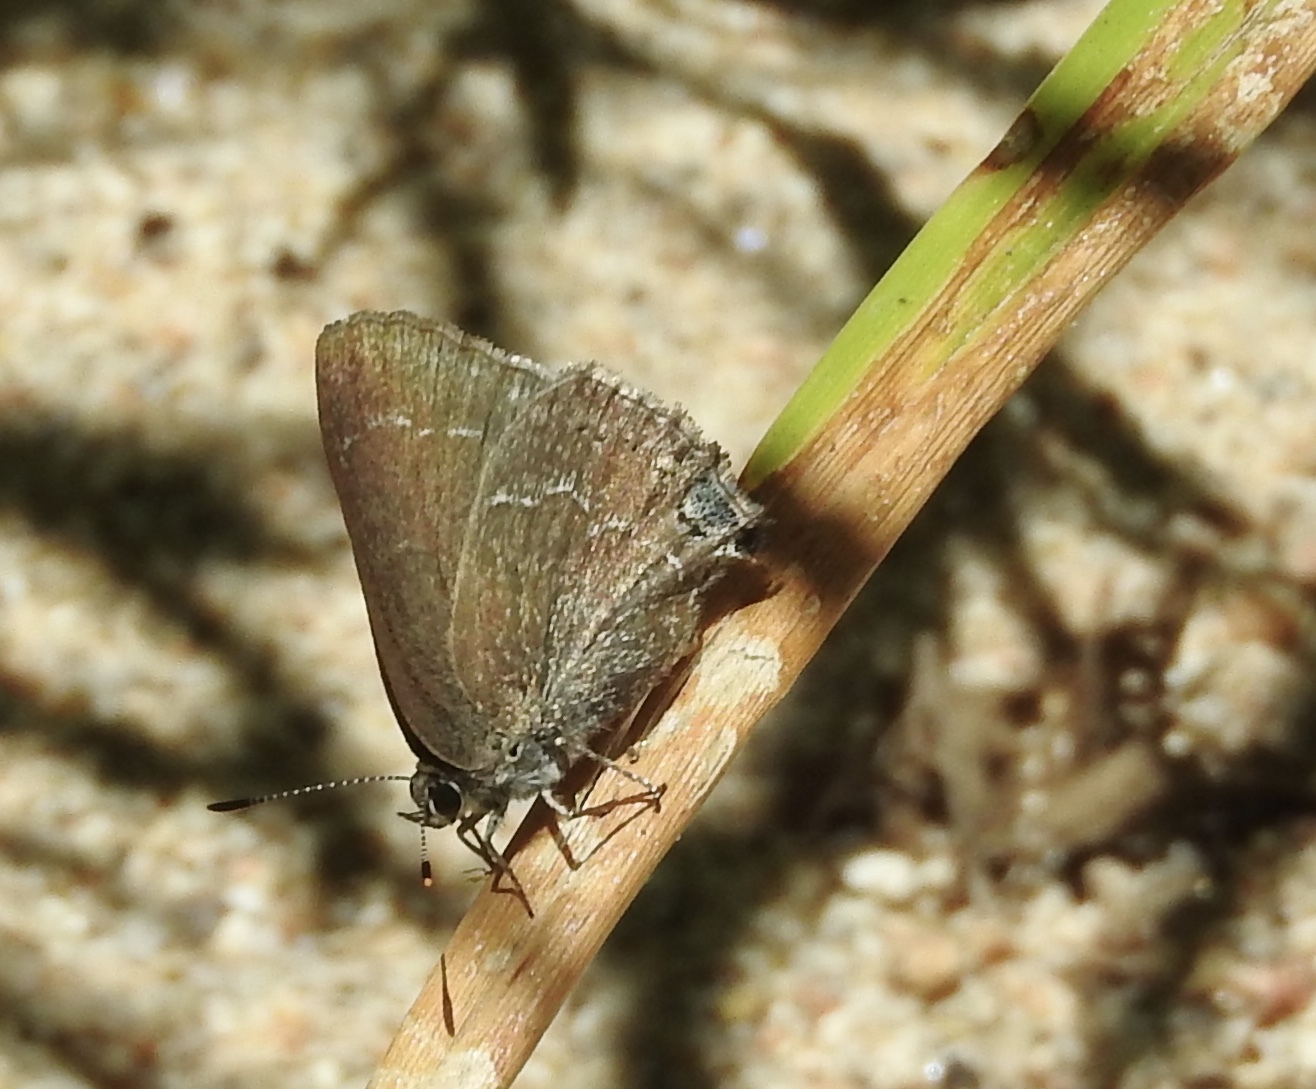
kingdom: Animalia
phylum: Arthropoda
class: Insecta
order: Lepidoptera
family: Lycaenidae
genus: Thecla
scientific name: Thecla tetra
